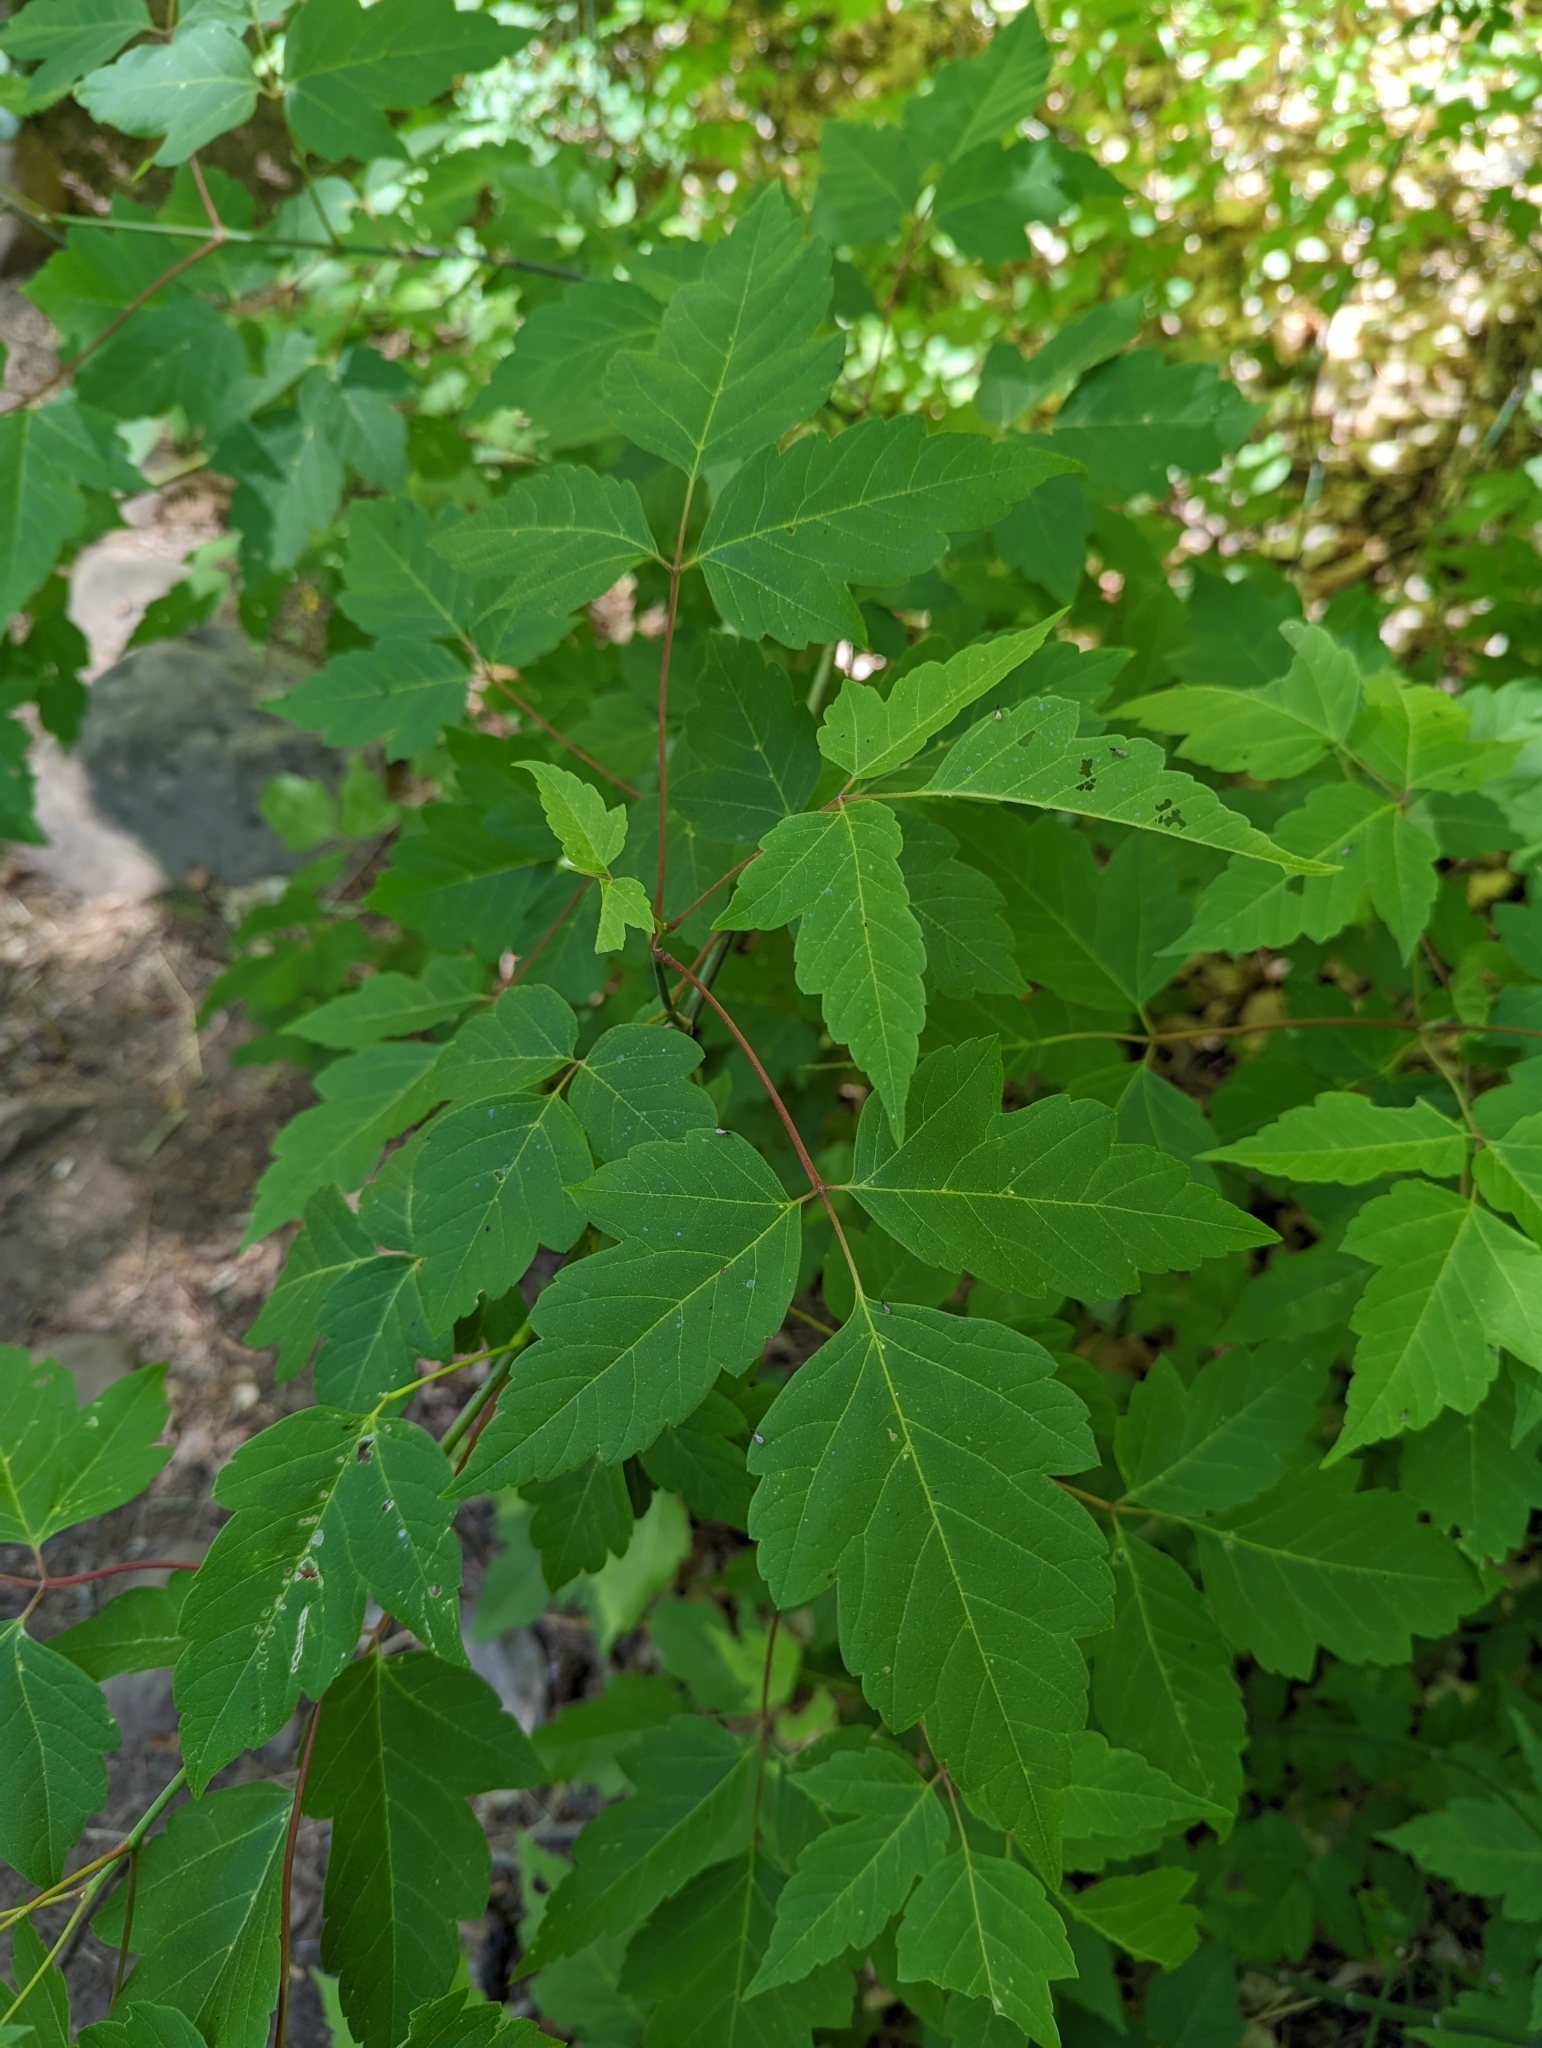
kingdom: Plantae
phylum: Tracheophyta
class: Magnoliopsida
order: Sapindales
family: Sapindaceae
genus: Acer
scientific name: Acer negundo
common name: Ashleaf maple
